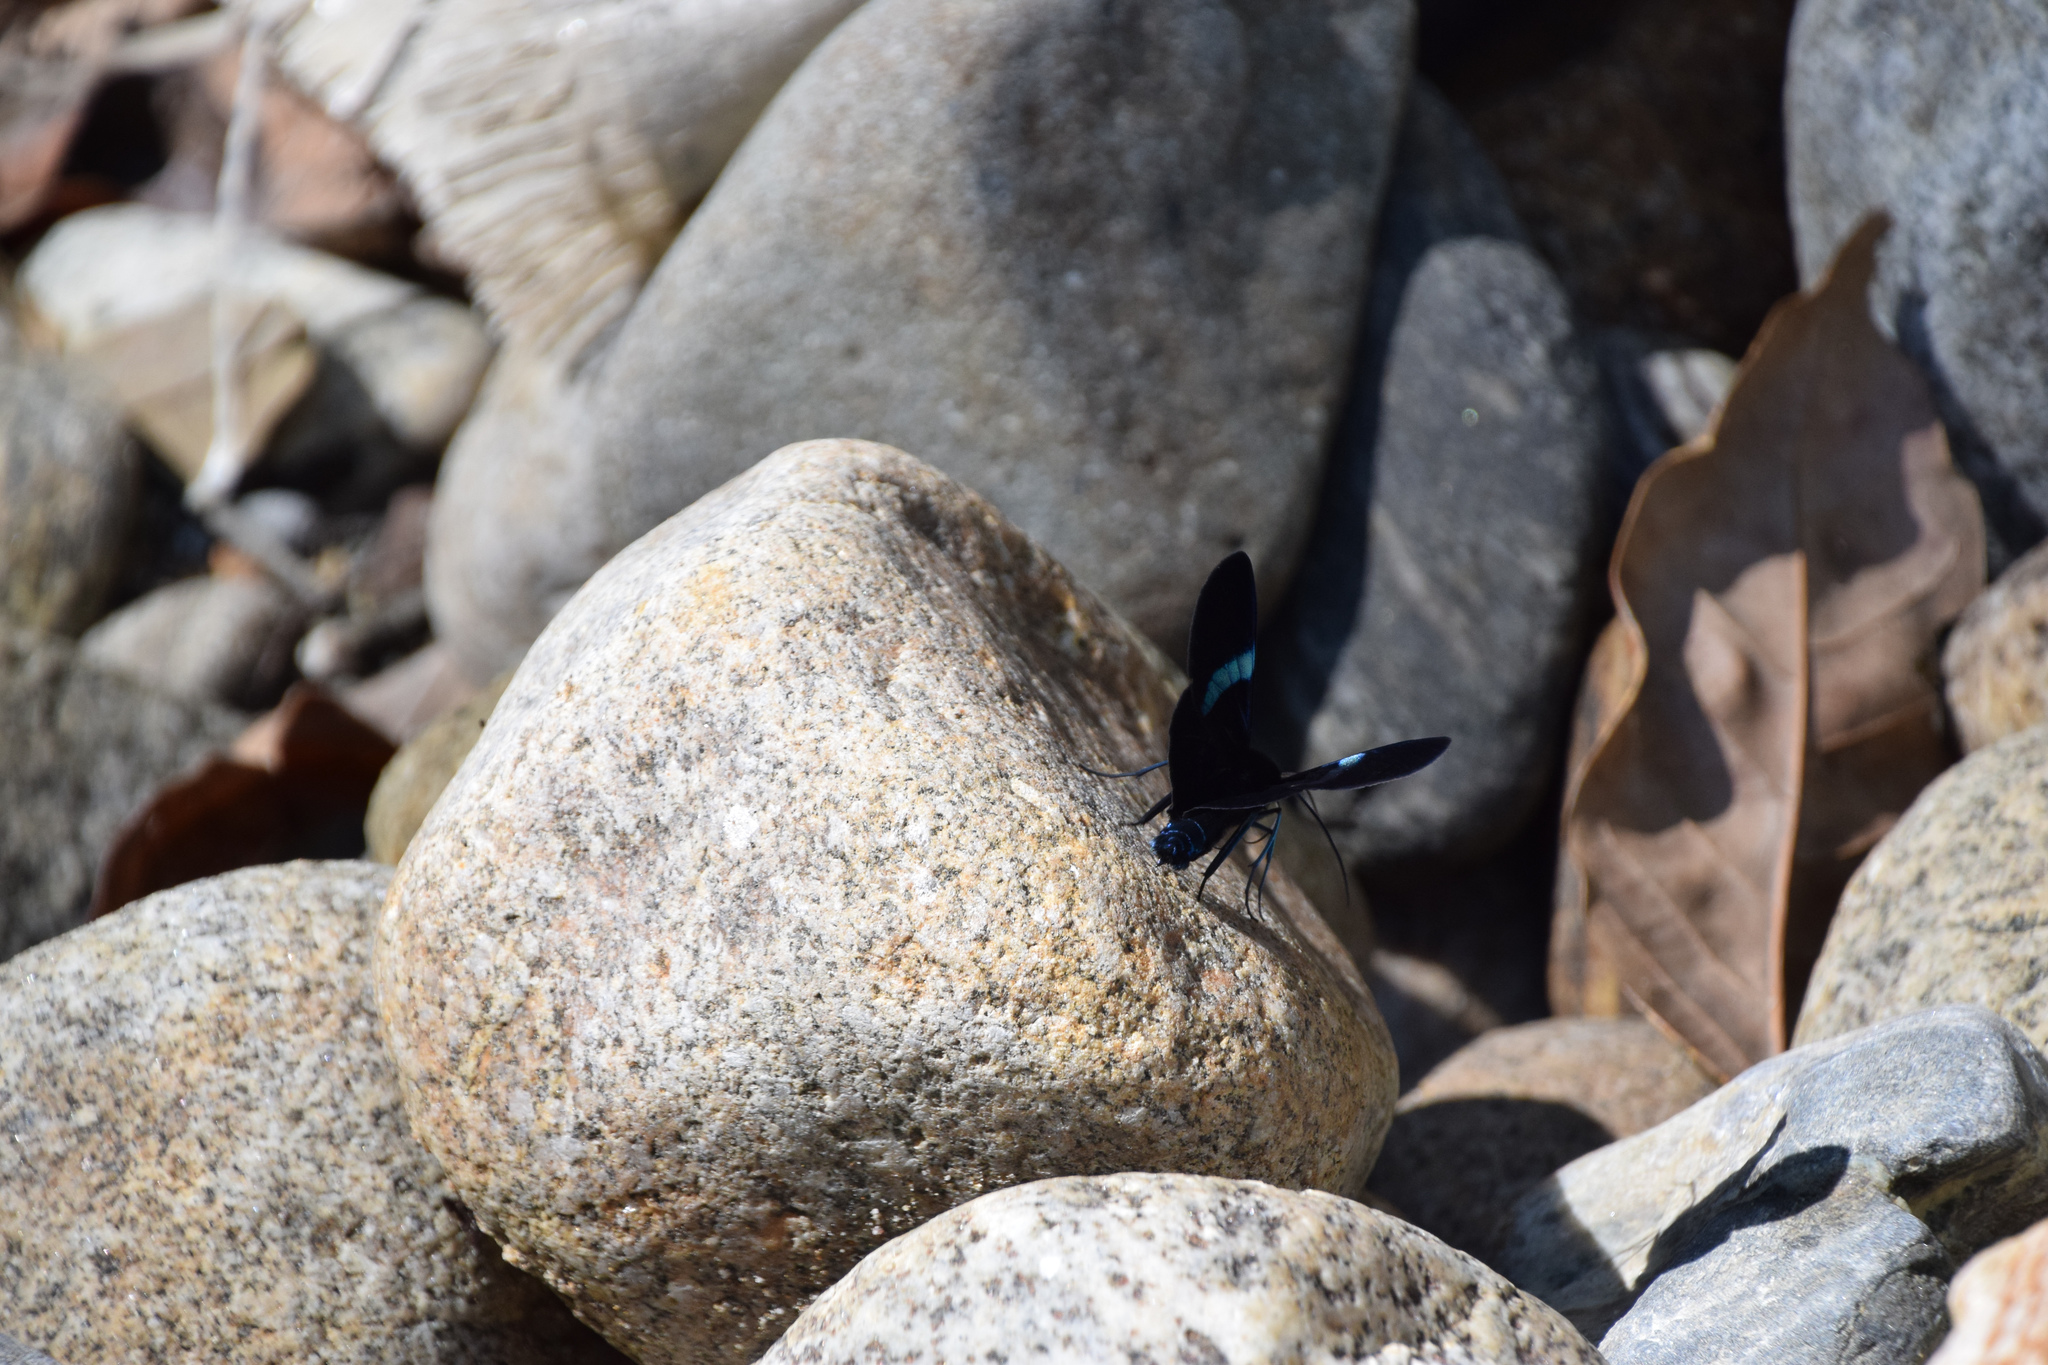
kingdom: Animalia
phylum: Arthropoda
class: Insecta
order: Lepidoptera
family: Geometridae
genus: Milionia
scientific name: Milionia
